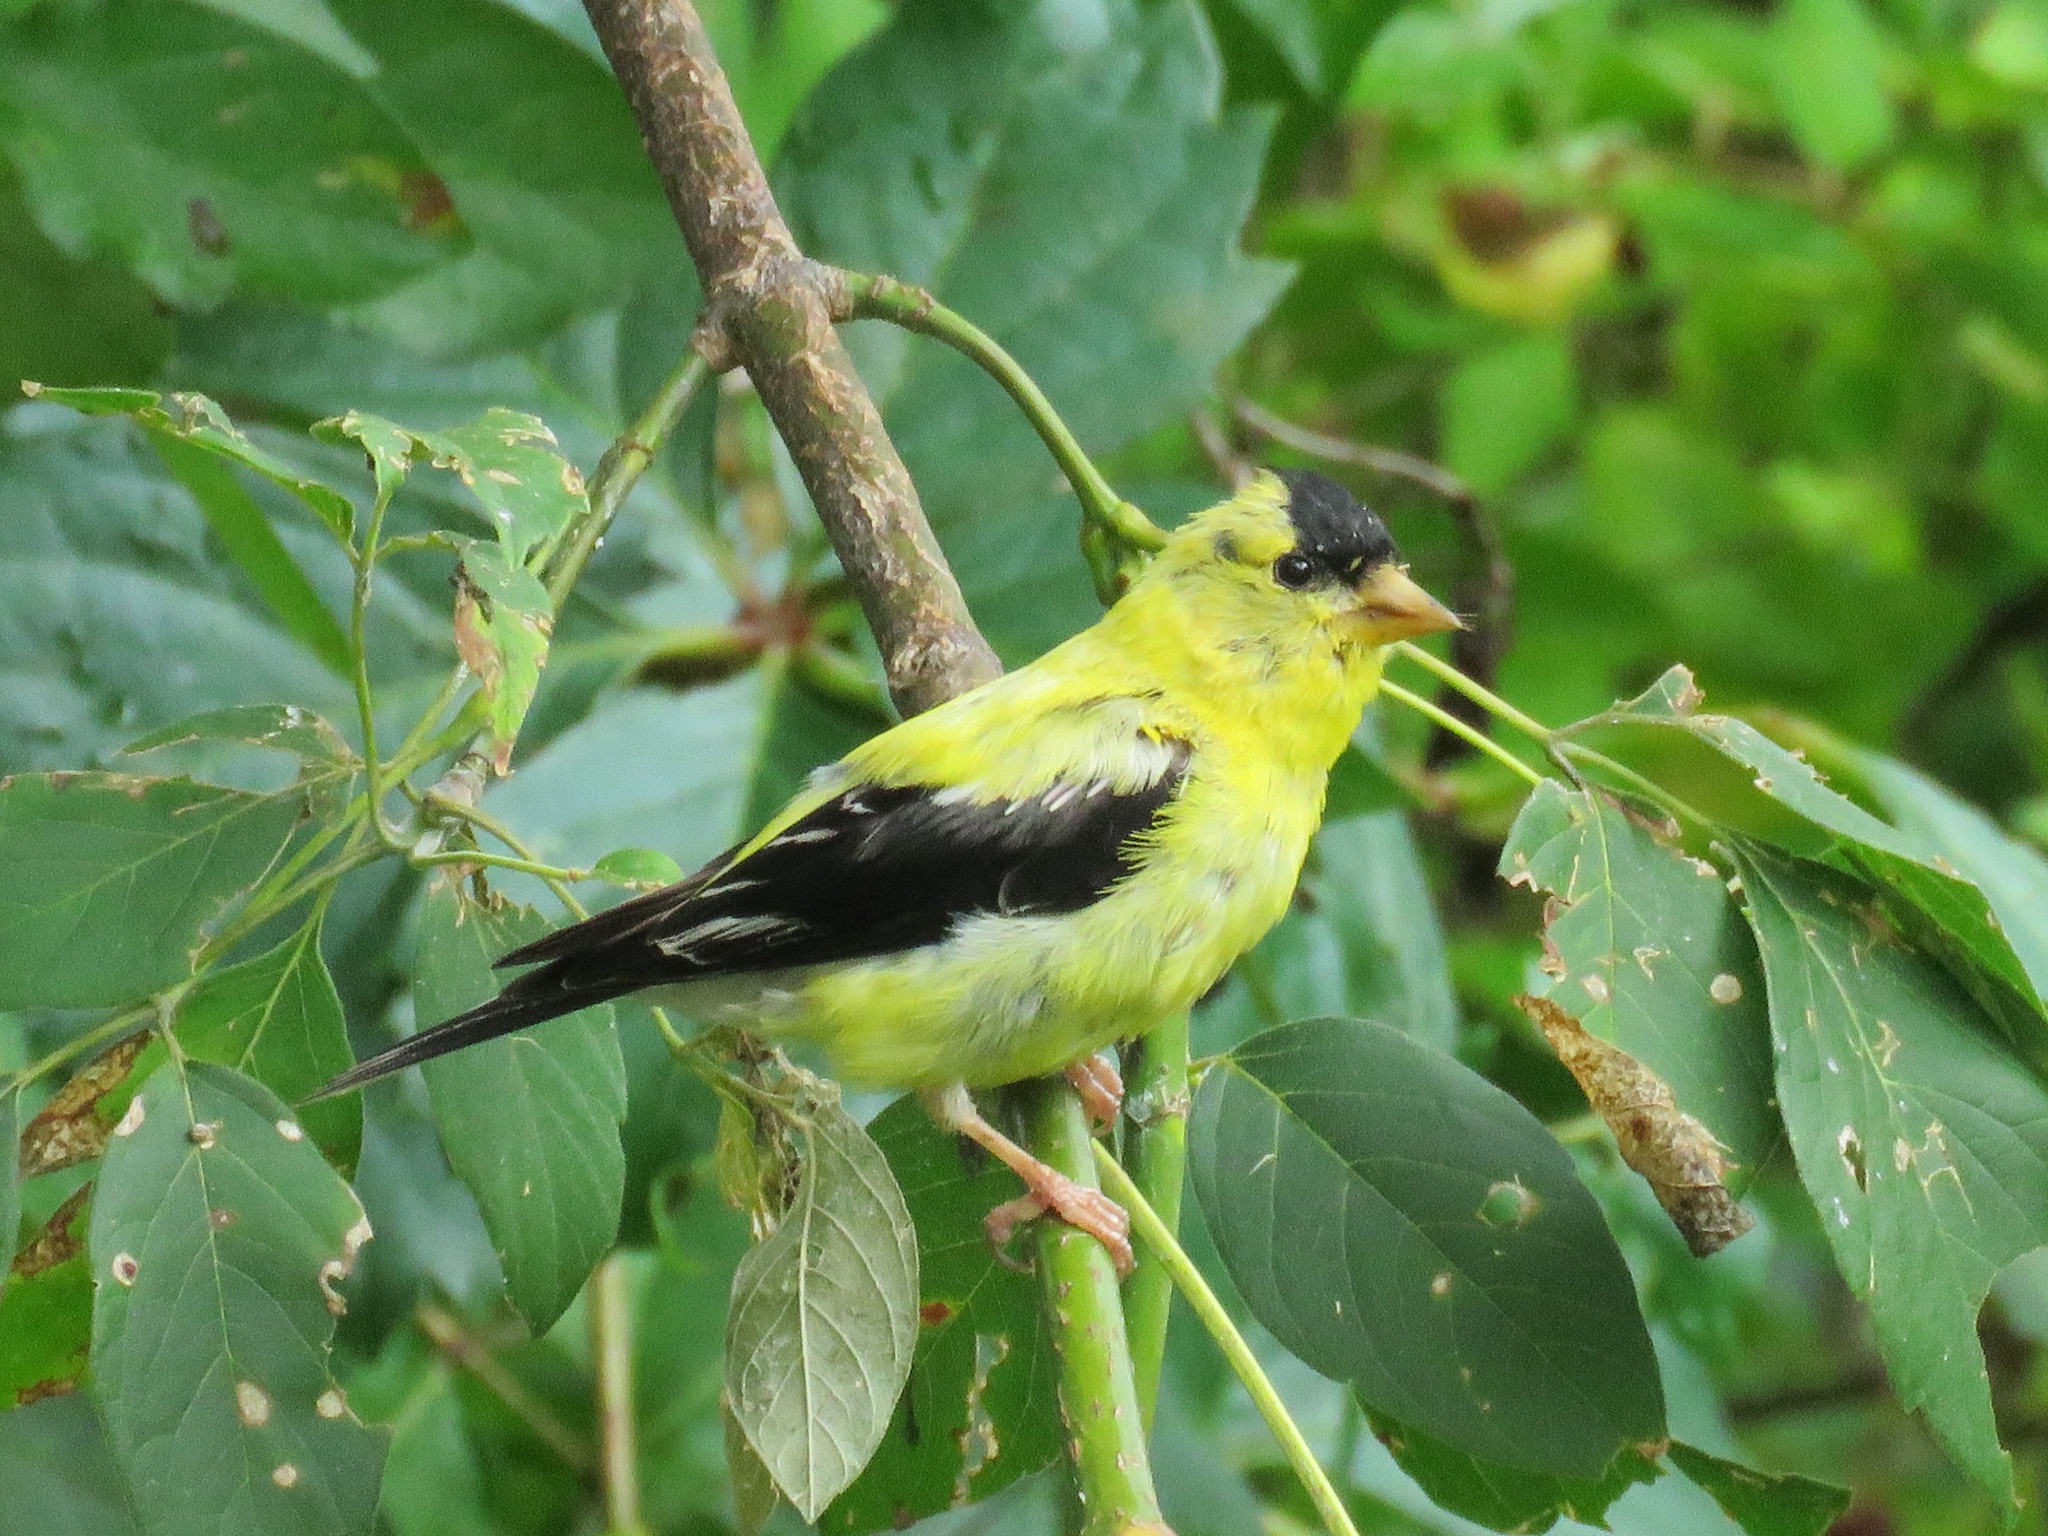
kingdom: Animalia
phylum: Chordata
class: Aves
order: Passeriformes
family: Fringillidae
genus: Spinus
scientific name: Spinus tristis
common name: American goldfinch
